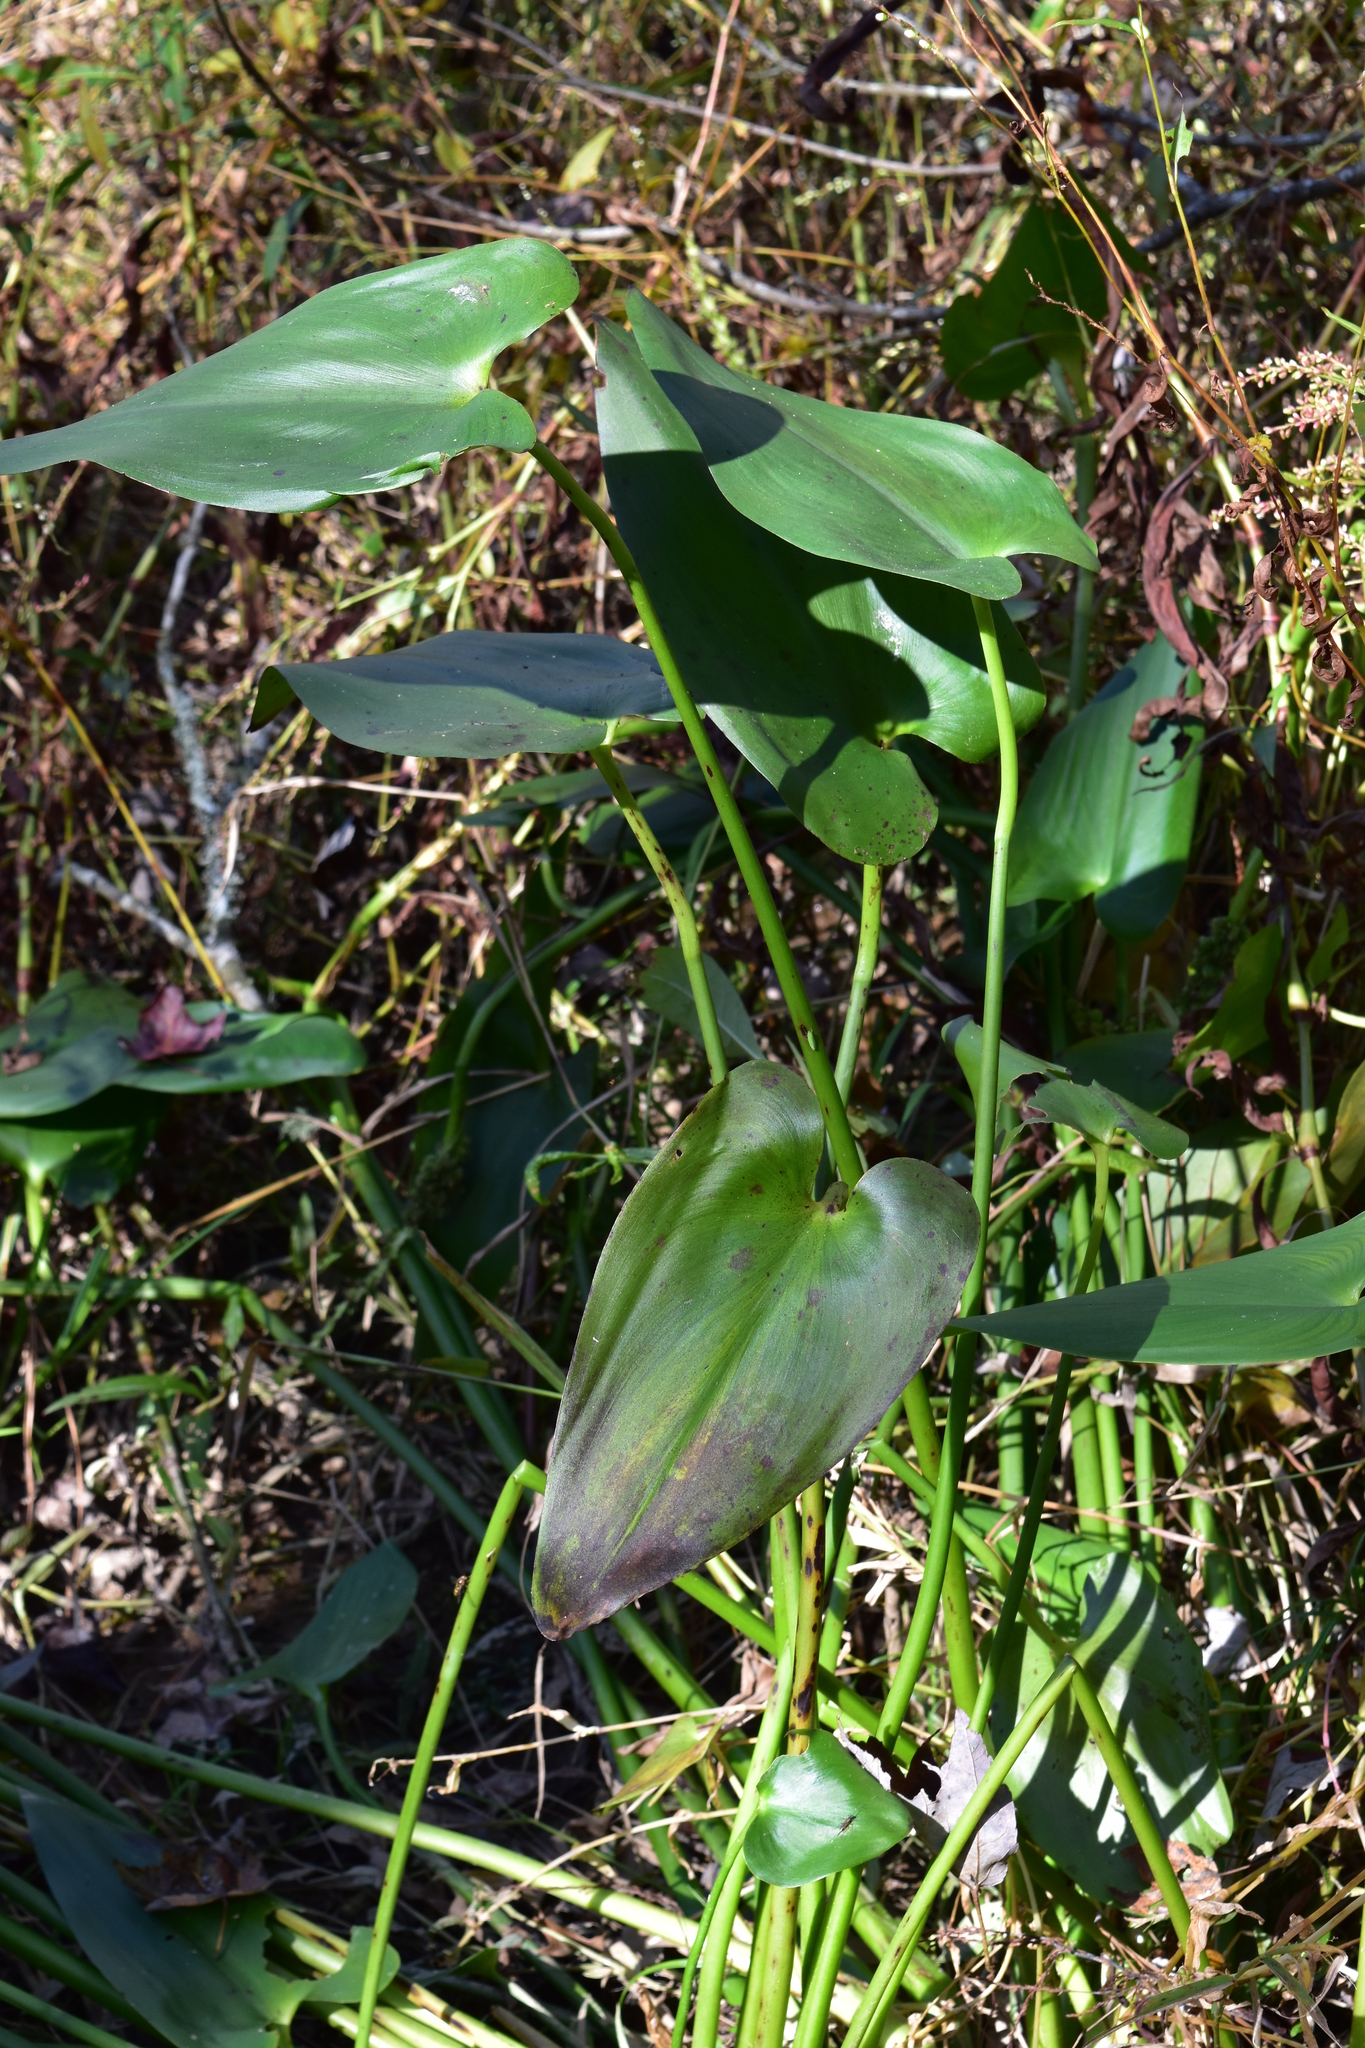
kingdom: Plantae
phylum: Tracheophyta
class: Liliopsida
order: Commelinales
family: Pontederiaceae
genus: Pontederia
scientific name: Pontederia cordata
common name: Pickerelweed
